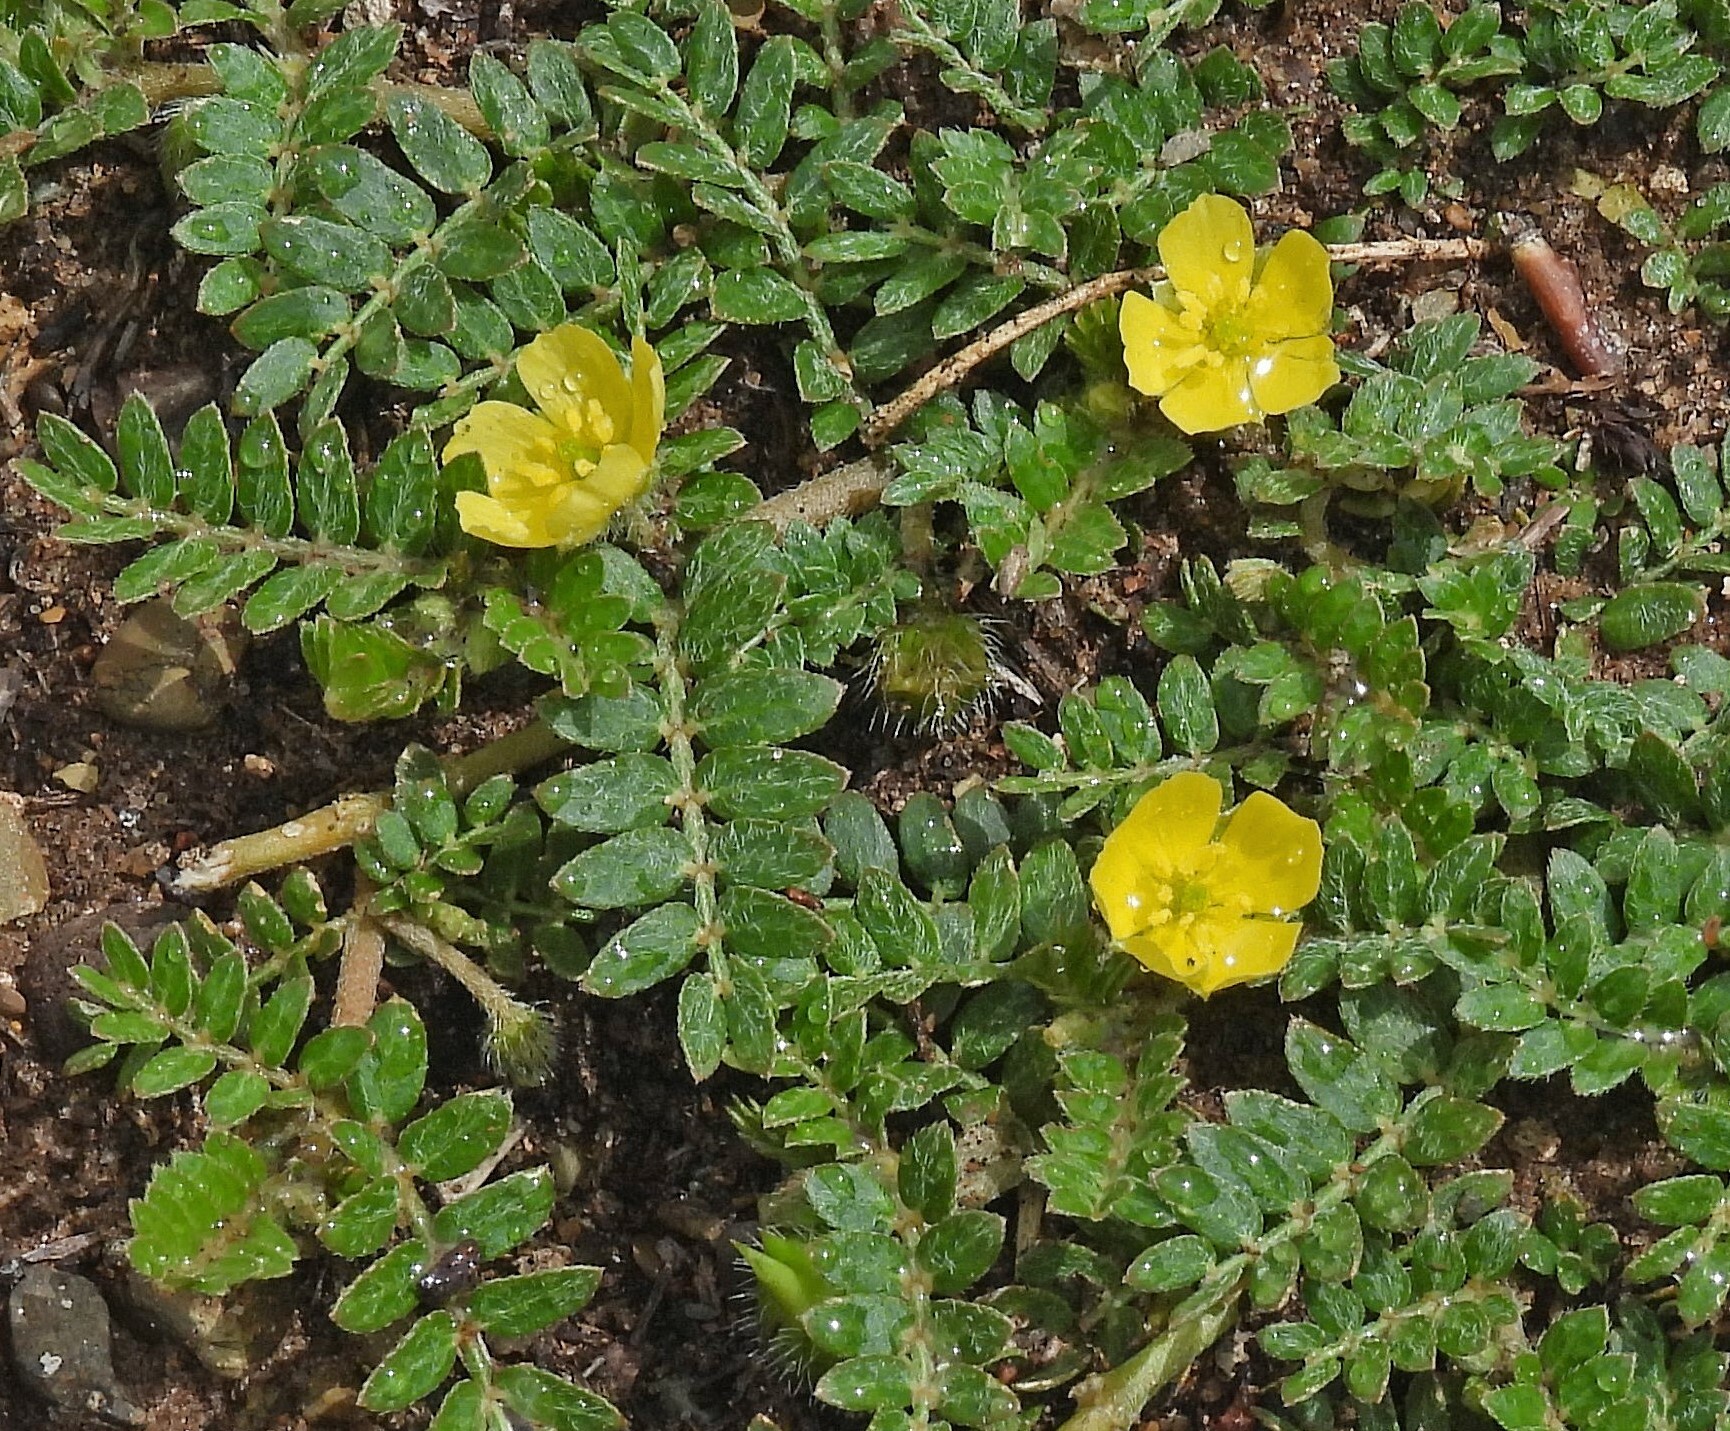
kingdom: Plantae
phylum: Tracheophyta
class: Magnoliopsida
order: Zygophyllales
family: Zygophyllaceae
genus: Tribulus
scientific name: Tribulus terrestris
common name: Puncturevine
